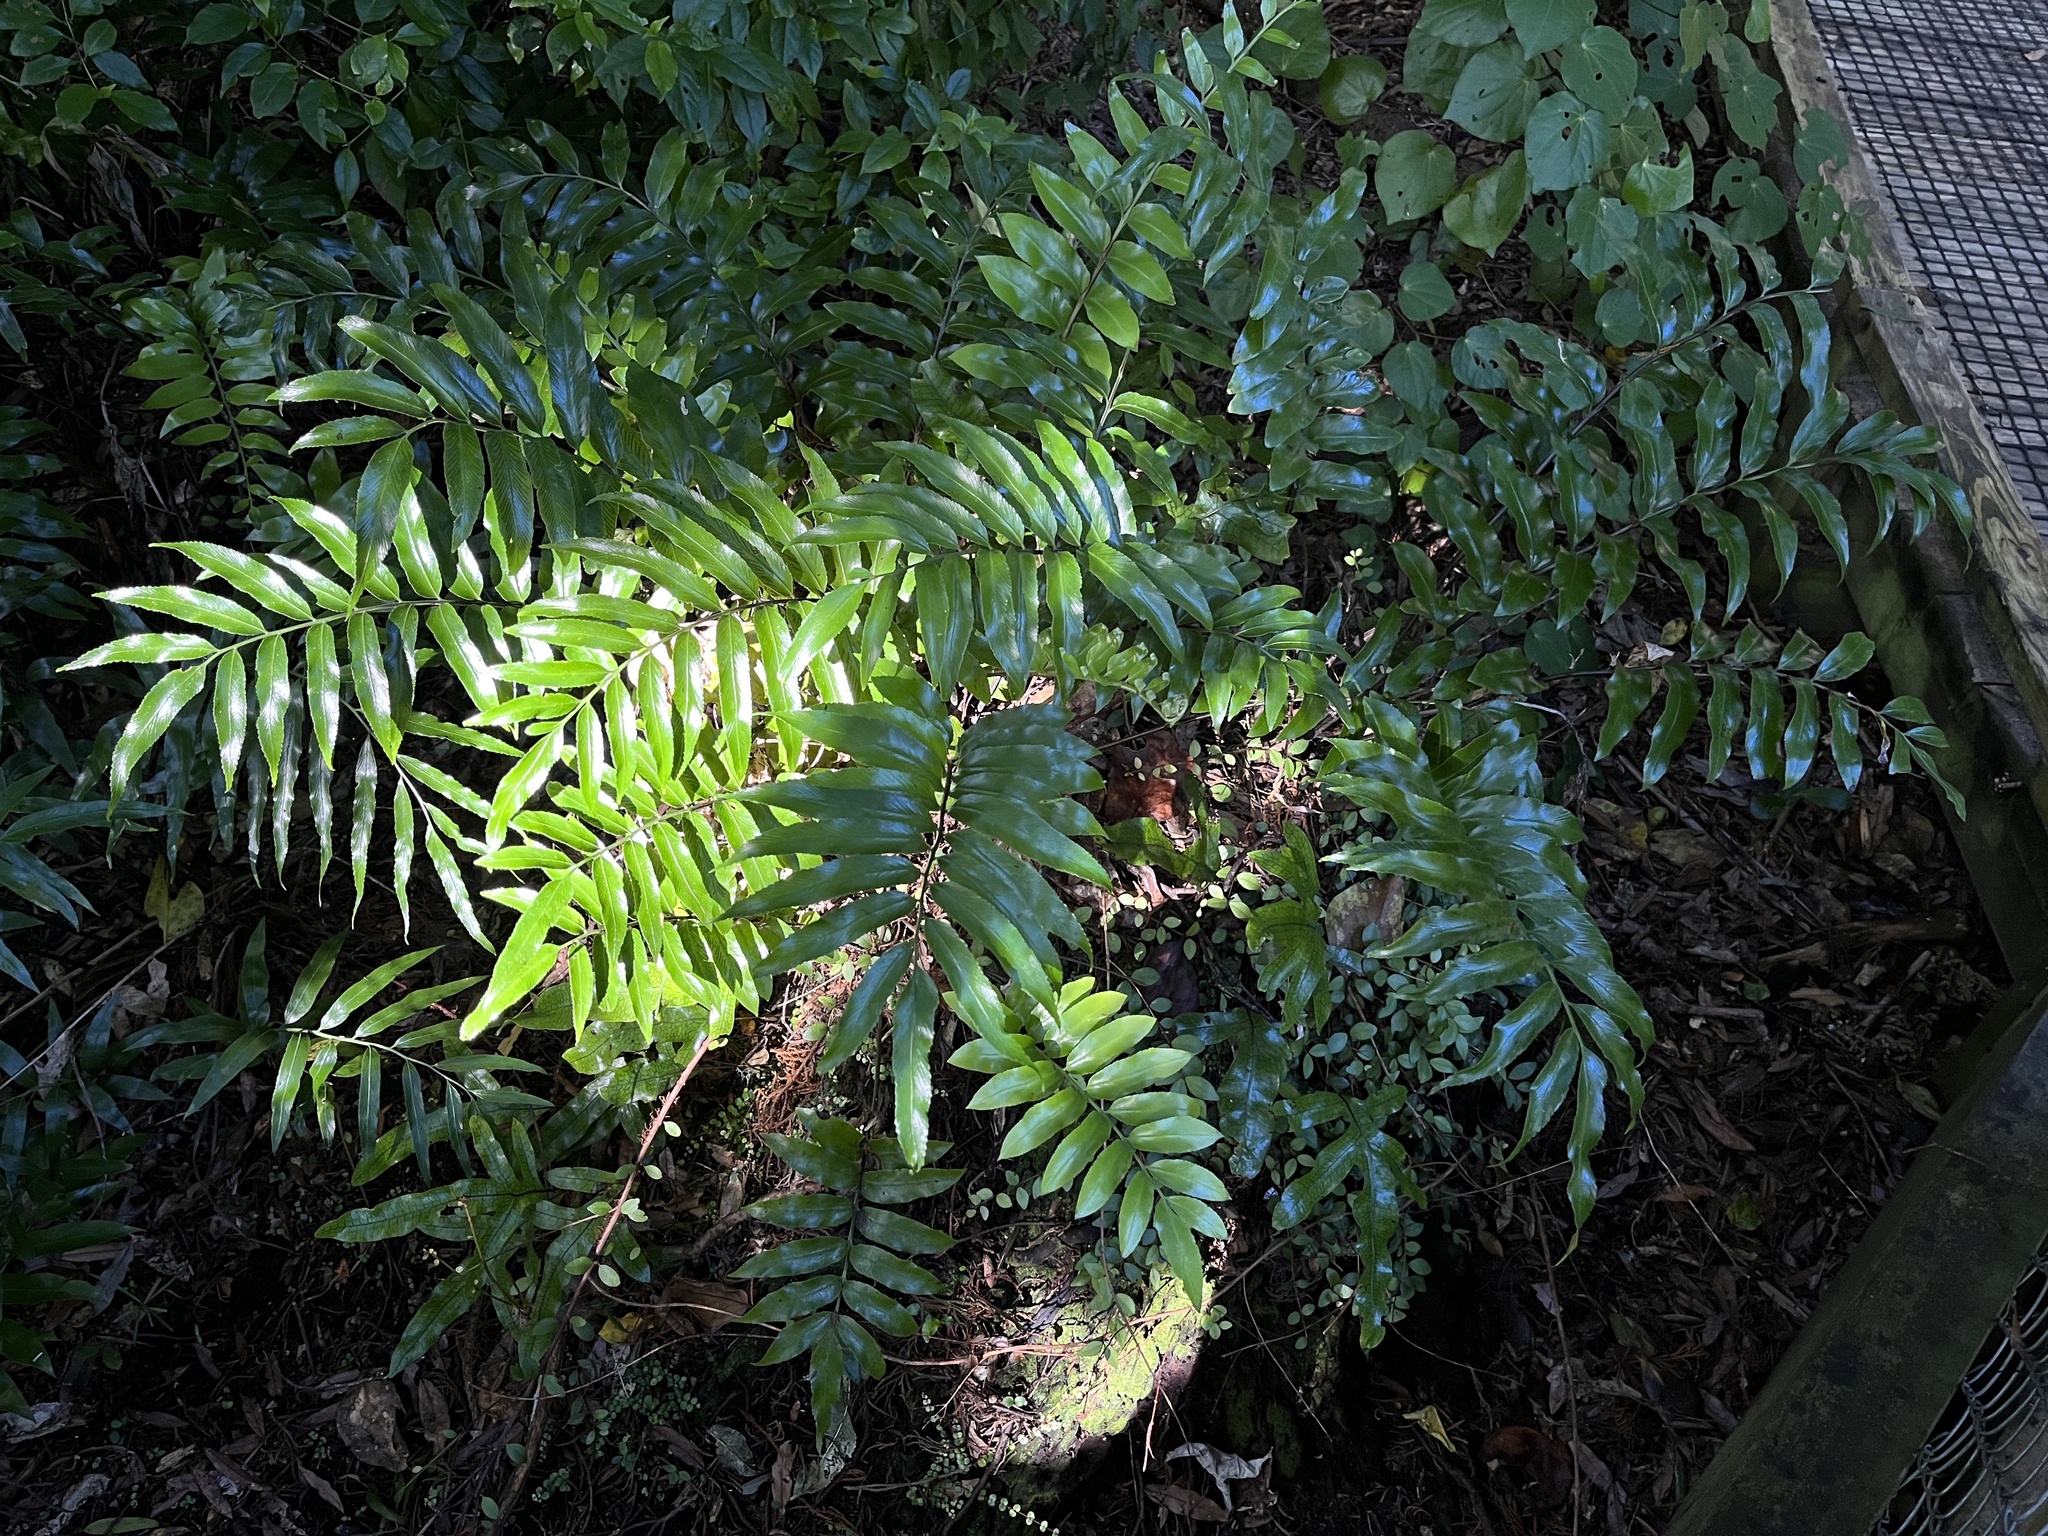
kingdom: Plantae
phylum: Tracheophyta
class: Polypodiopsida
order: Polypodiales
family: Aspleniaceae
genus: Asplenium
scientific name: Asplenium oblongifolium
